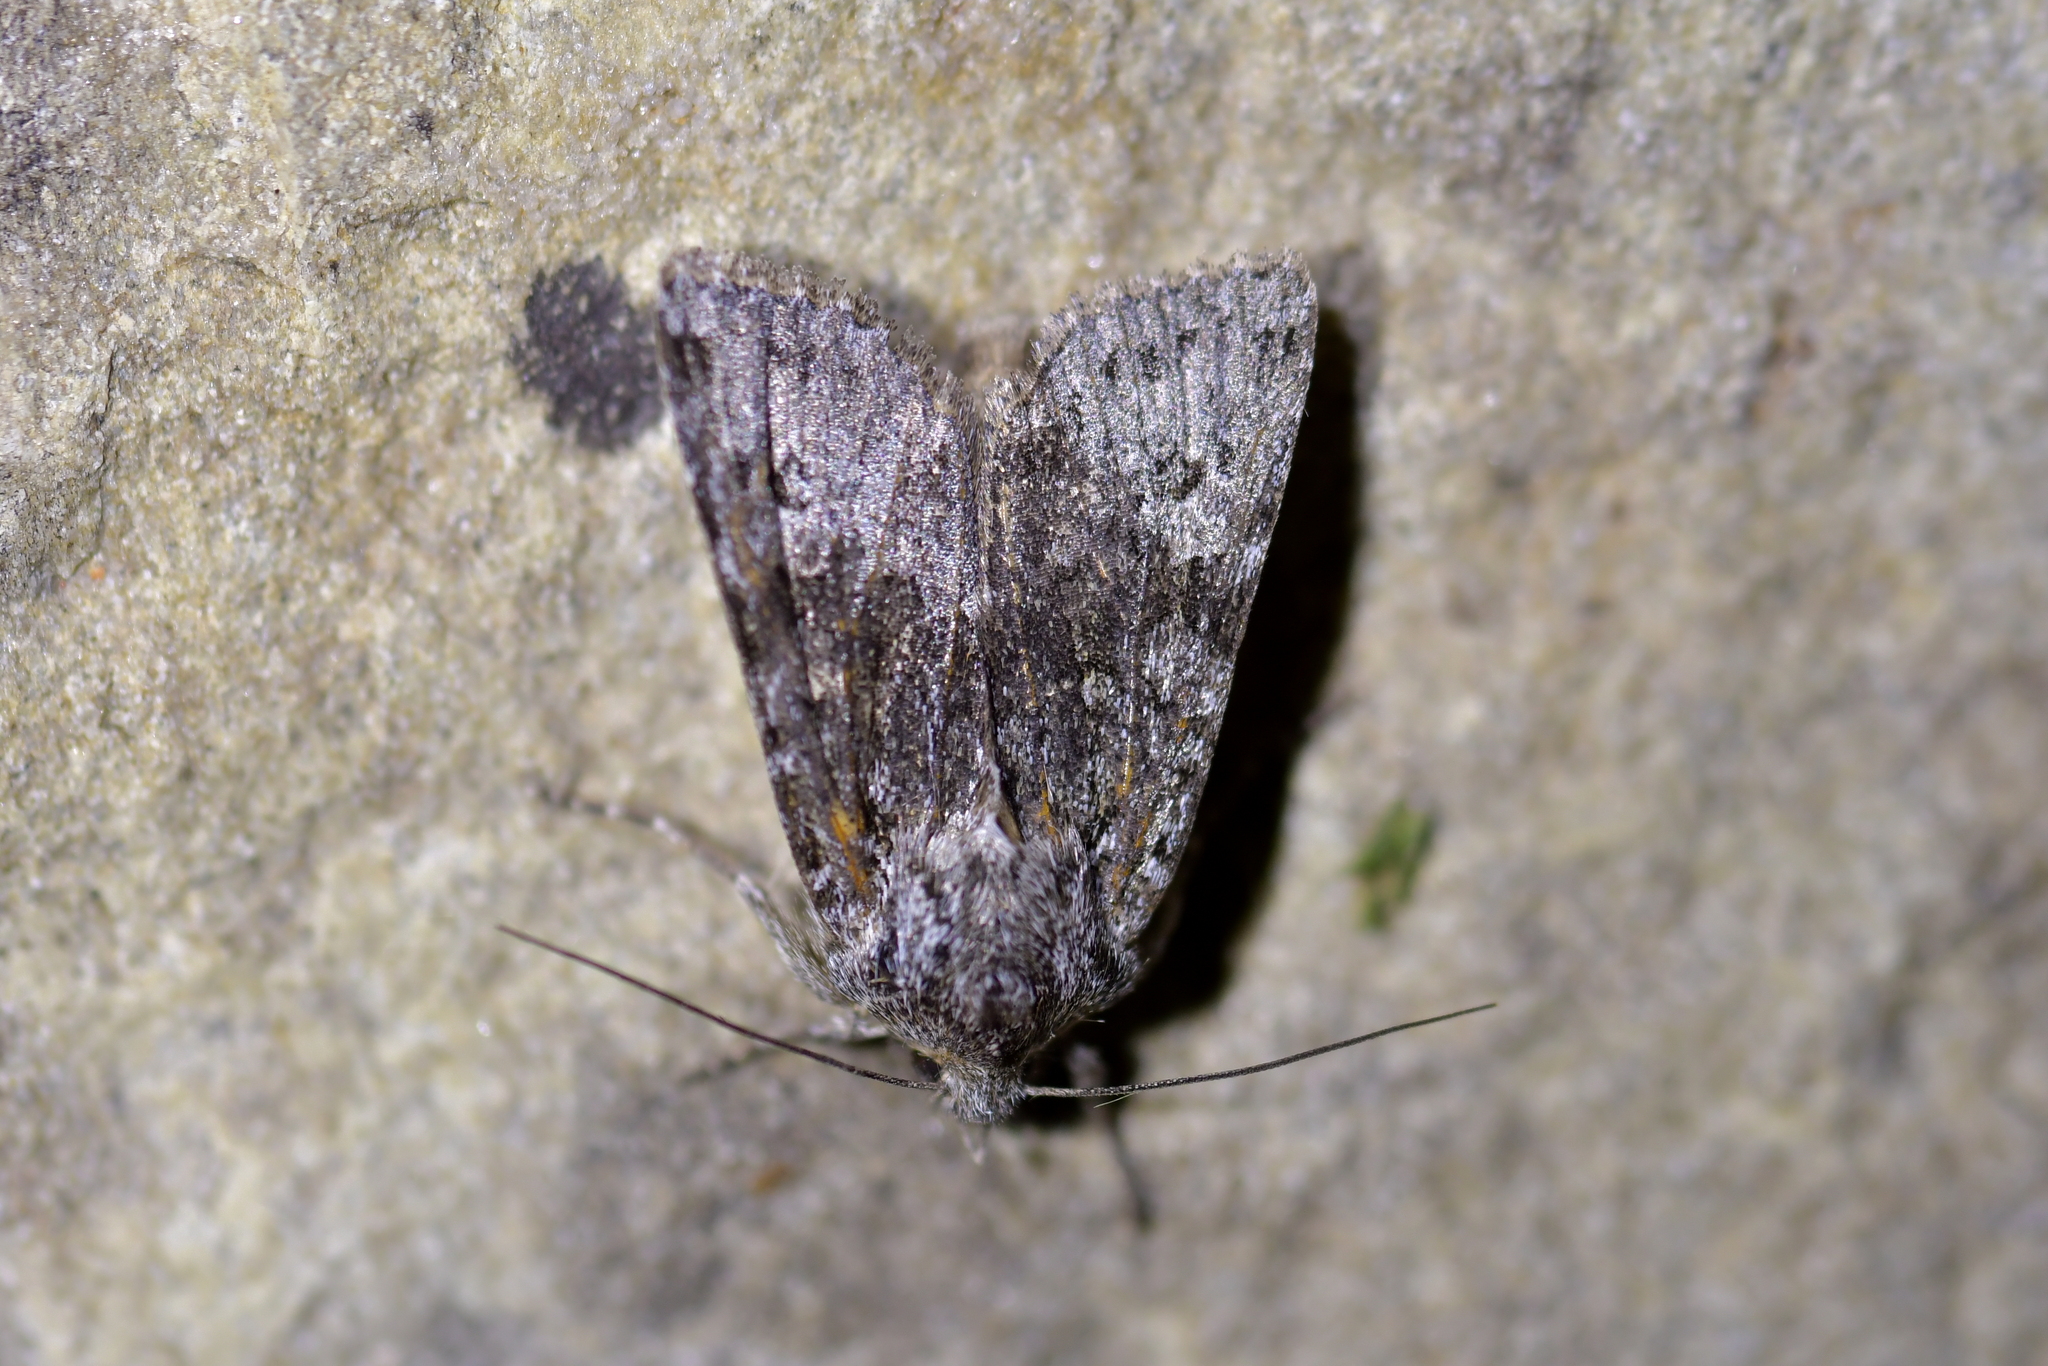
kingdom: Animalia
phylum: Arthropoda
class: Insecta
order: Lepidoptera
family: Noctuidae
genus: Physetica
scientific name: Physetica cucullina
